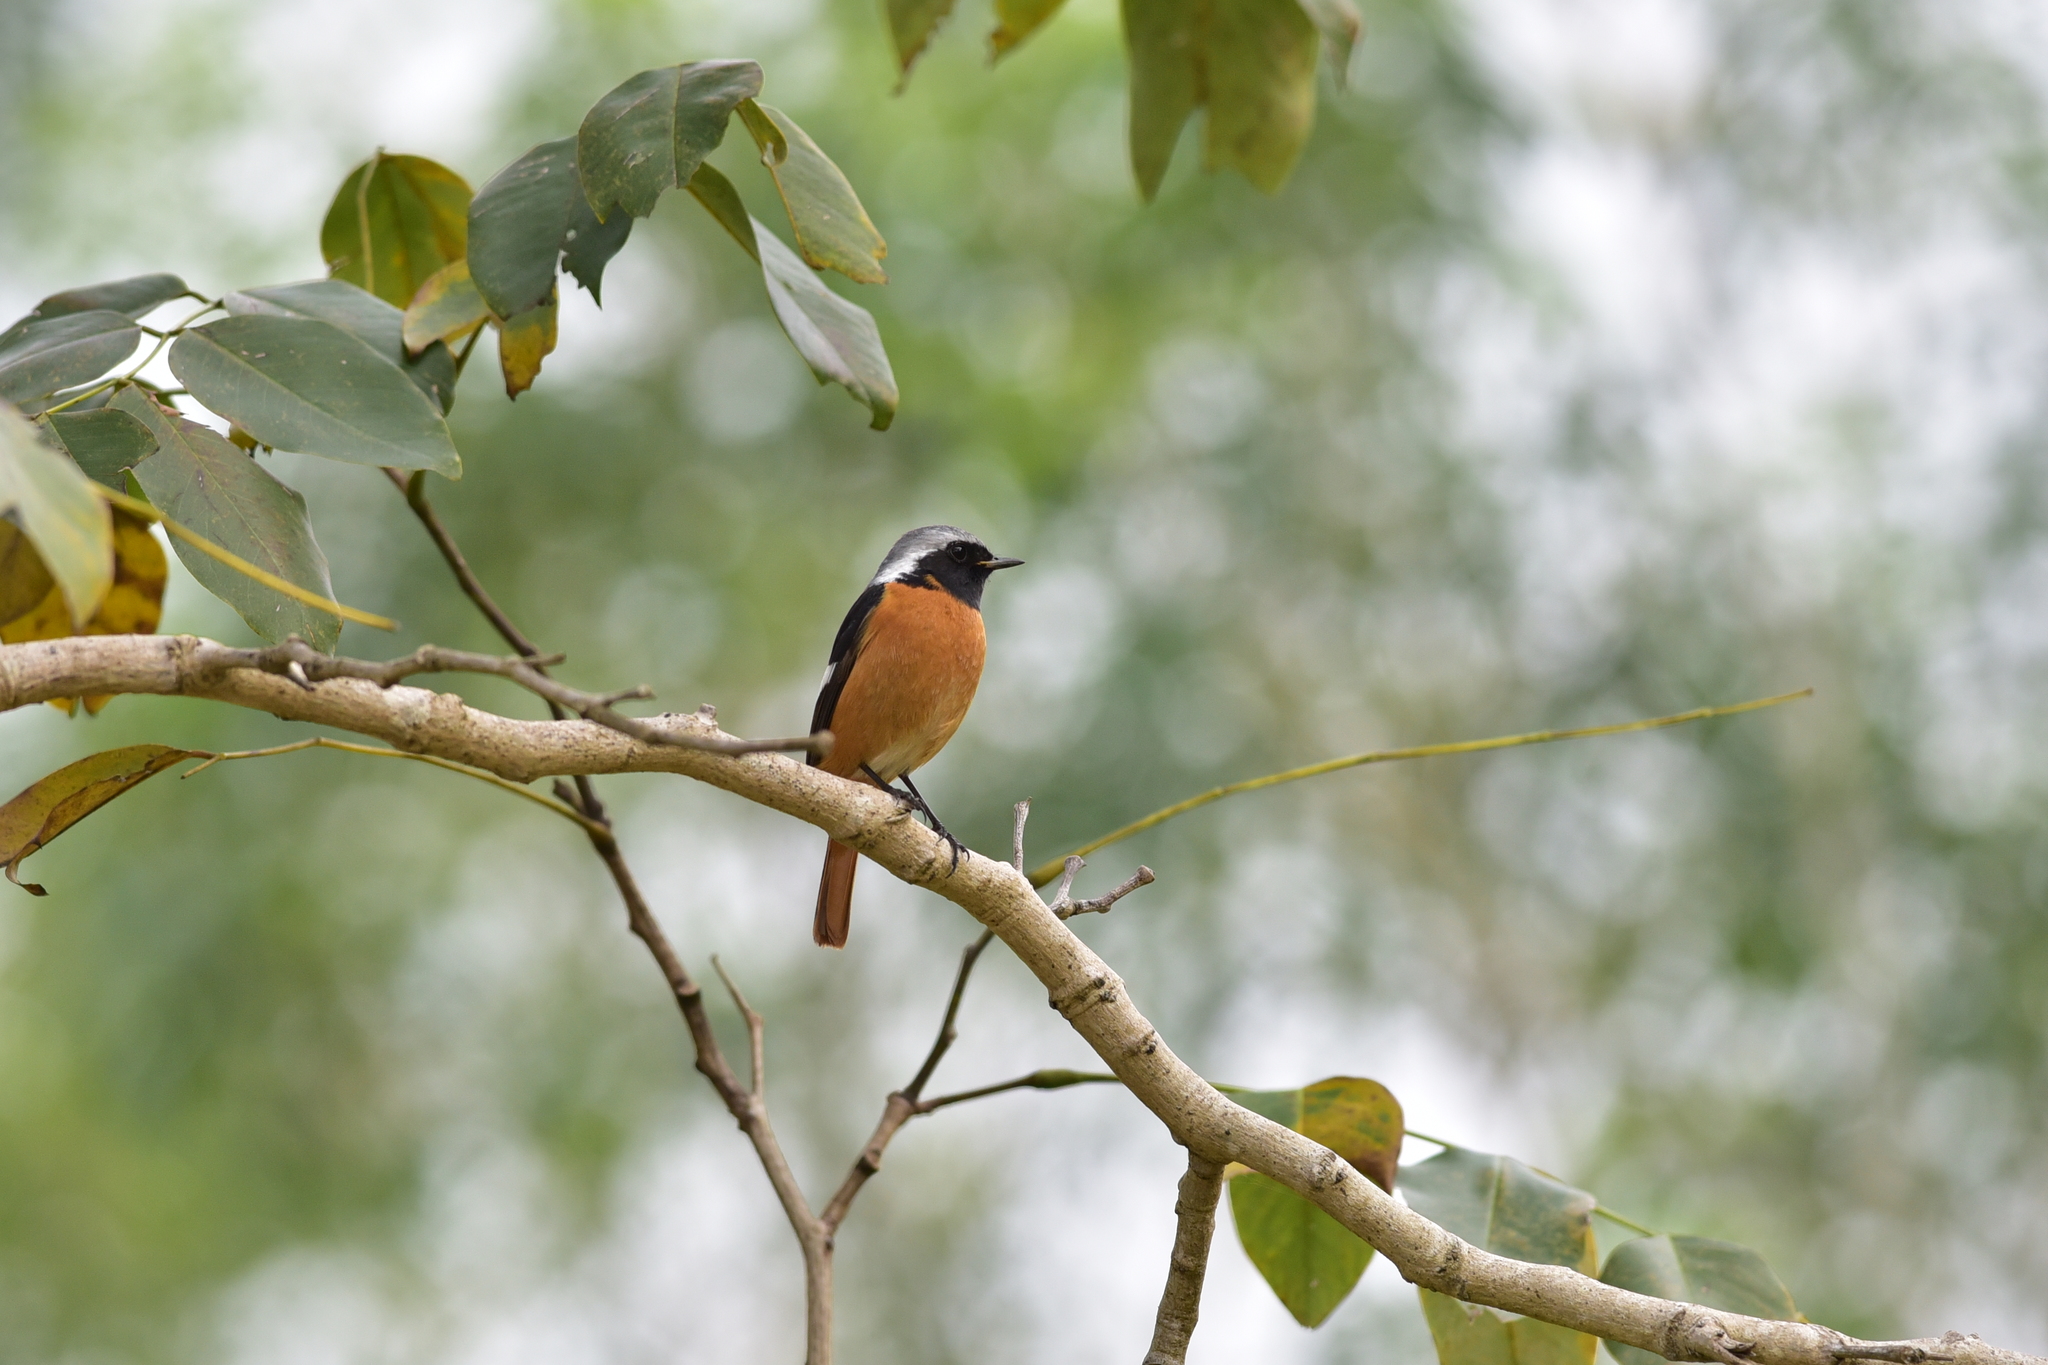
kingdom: Animalia
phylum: Chordata
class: Aves
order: Passeriformes
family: Muscicapidae
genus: Phoenicurus
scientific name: Phoenicurus auroreus
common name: Daurian redstart
